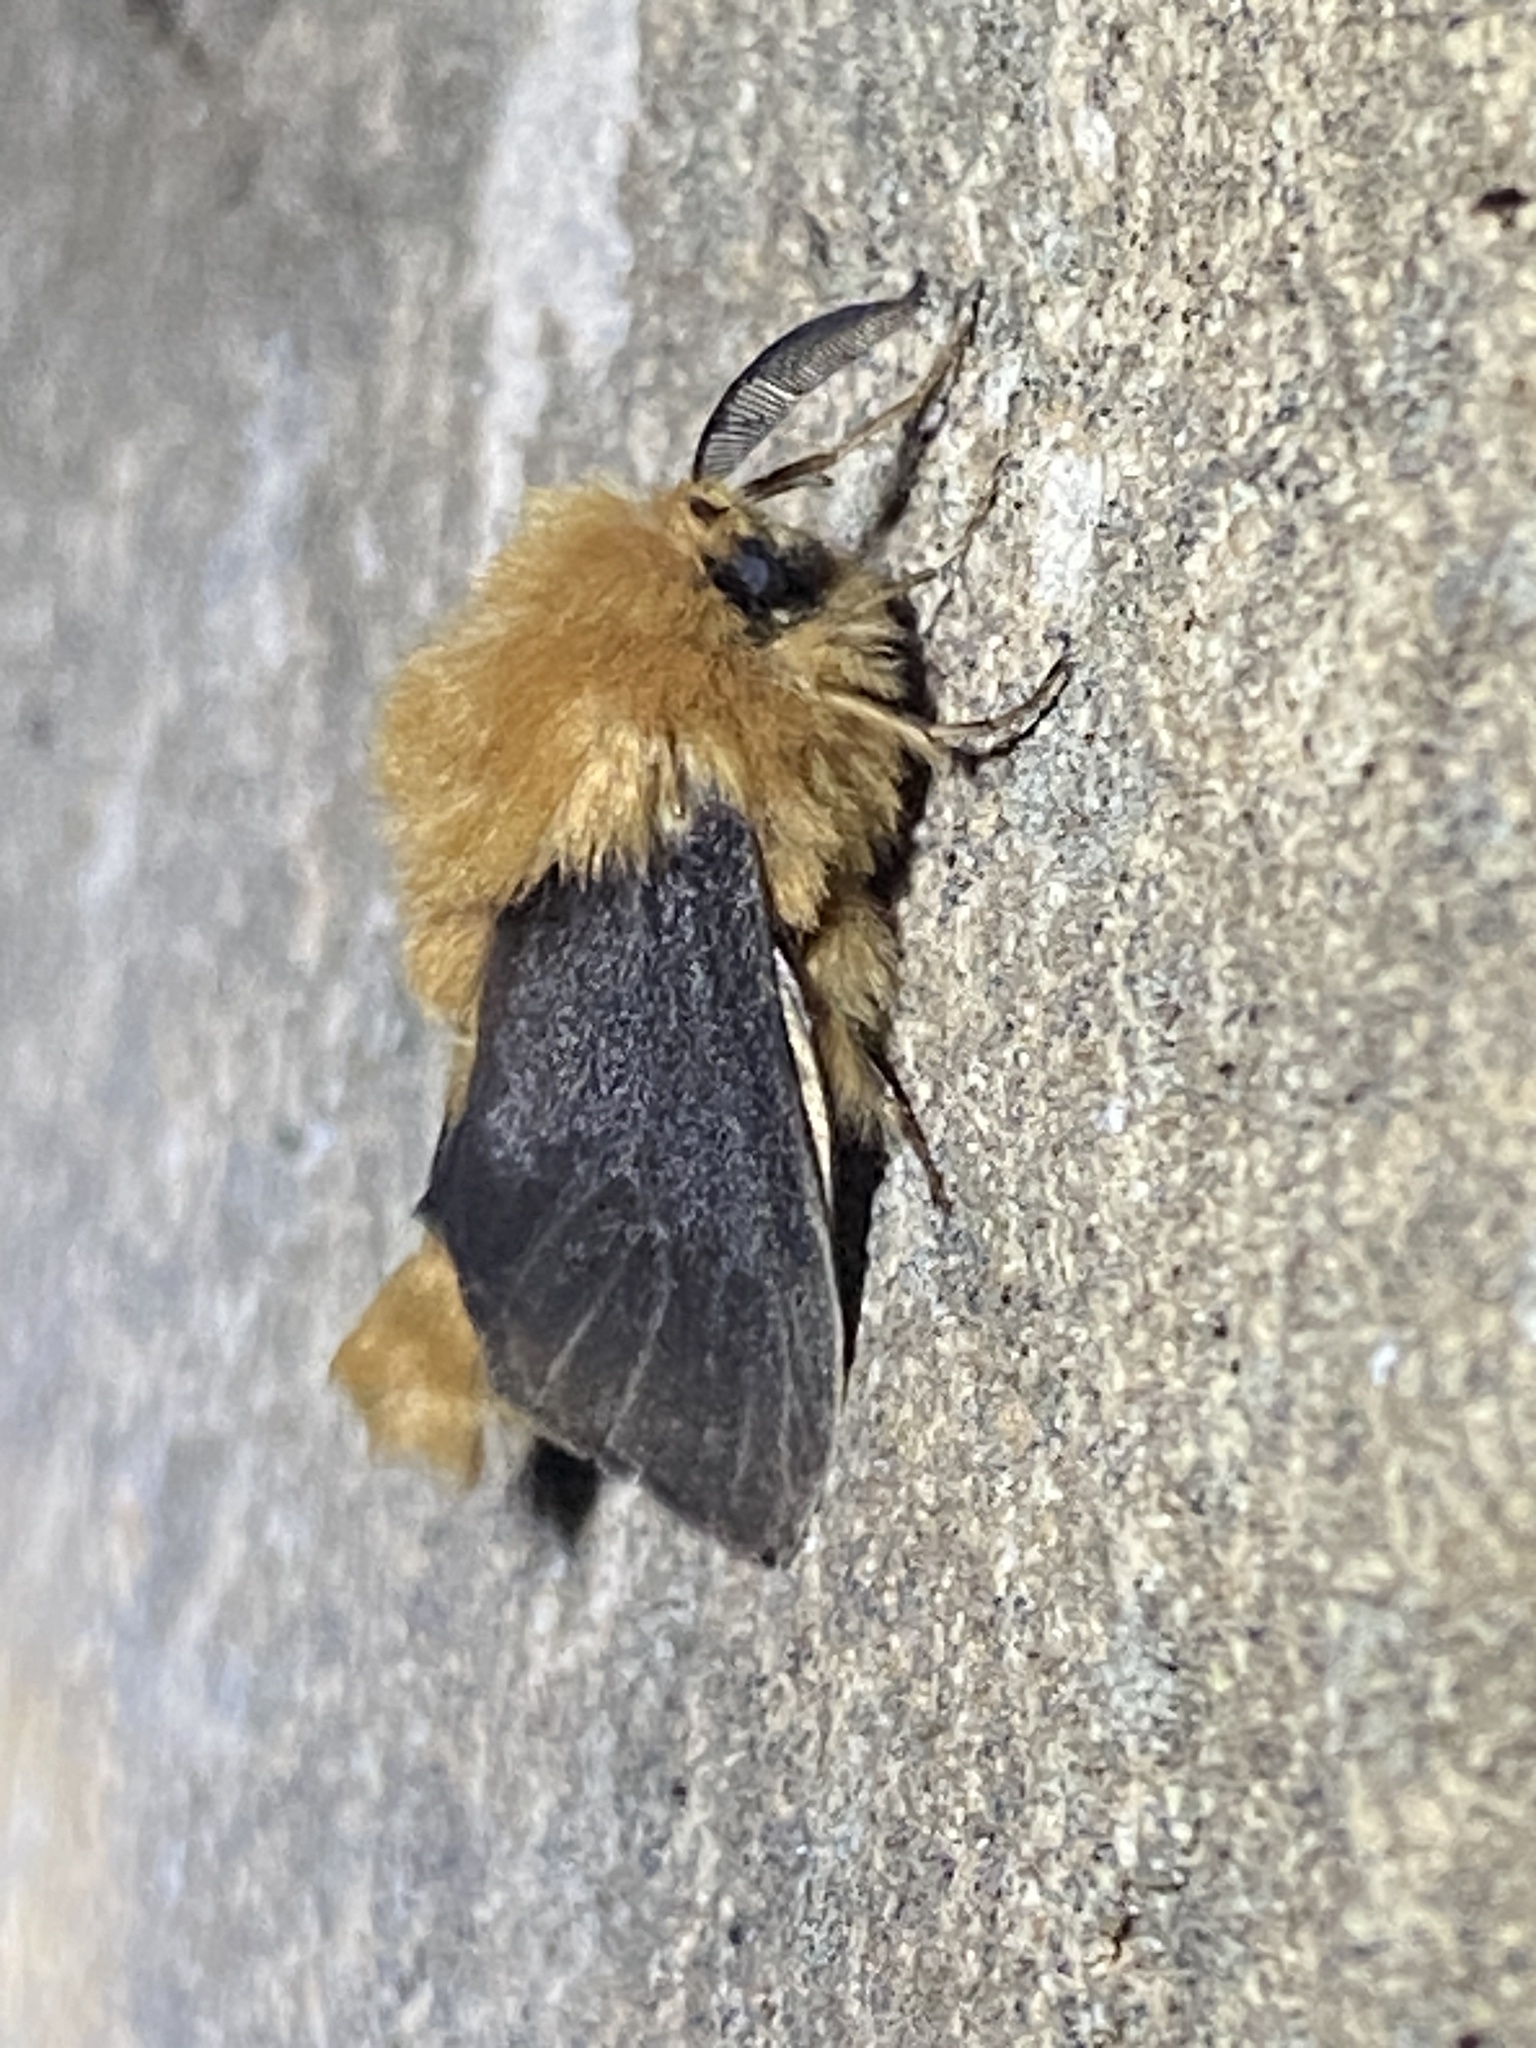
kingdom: Animalia
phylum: Arthropoda
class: Insecta
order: Lepidoptera
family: Psychidae
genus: Lomera
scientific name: Lomera
